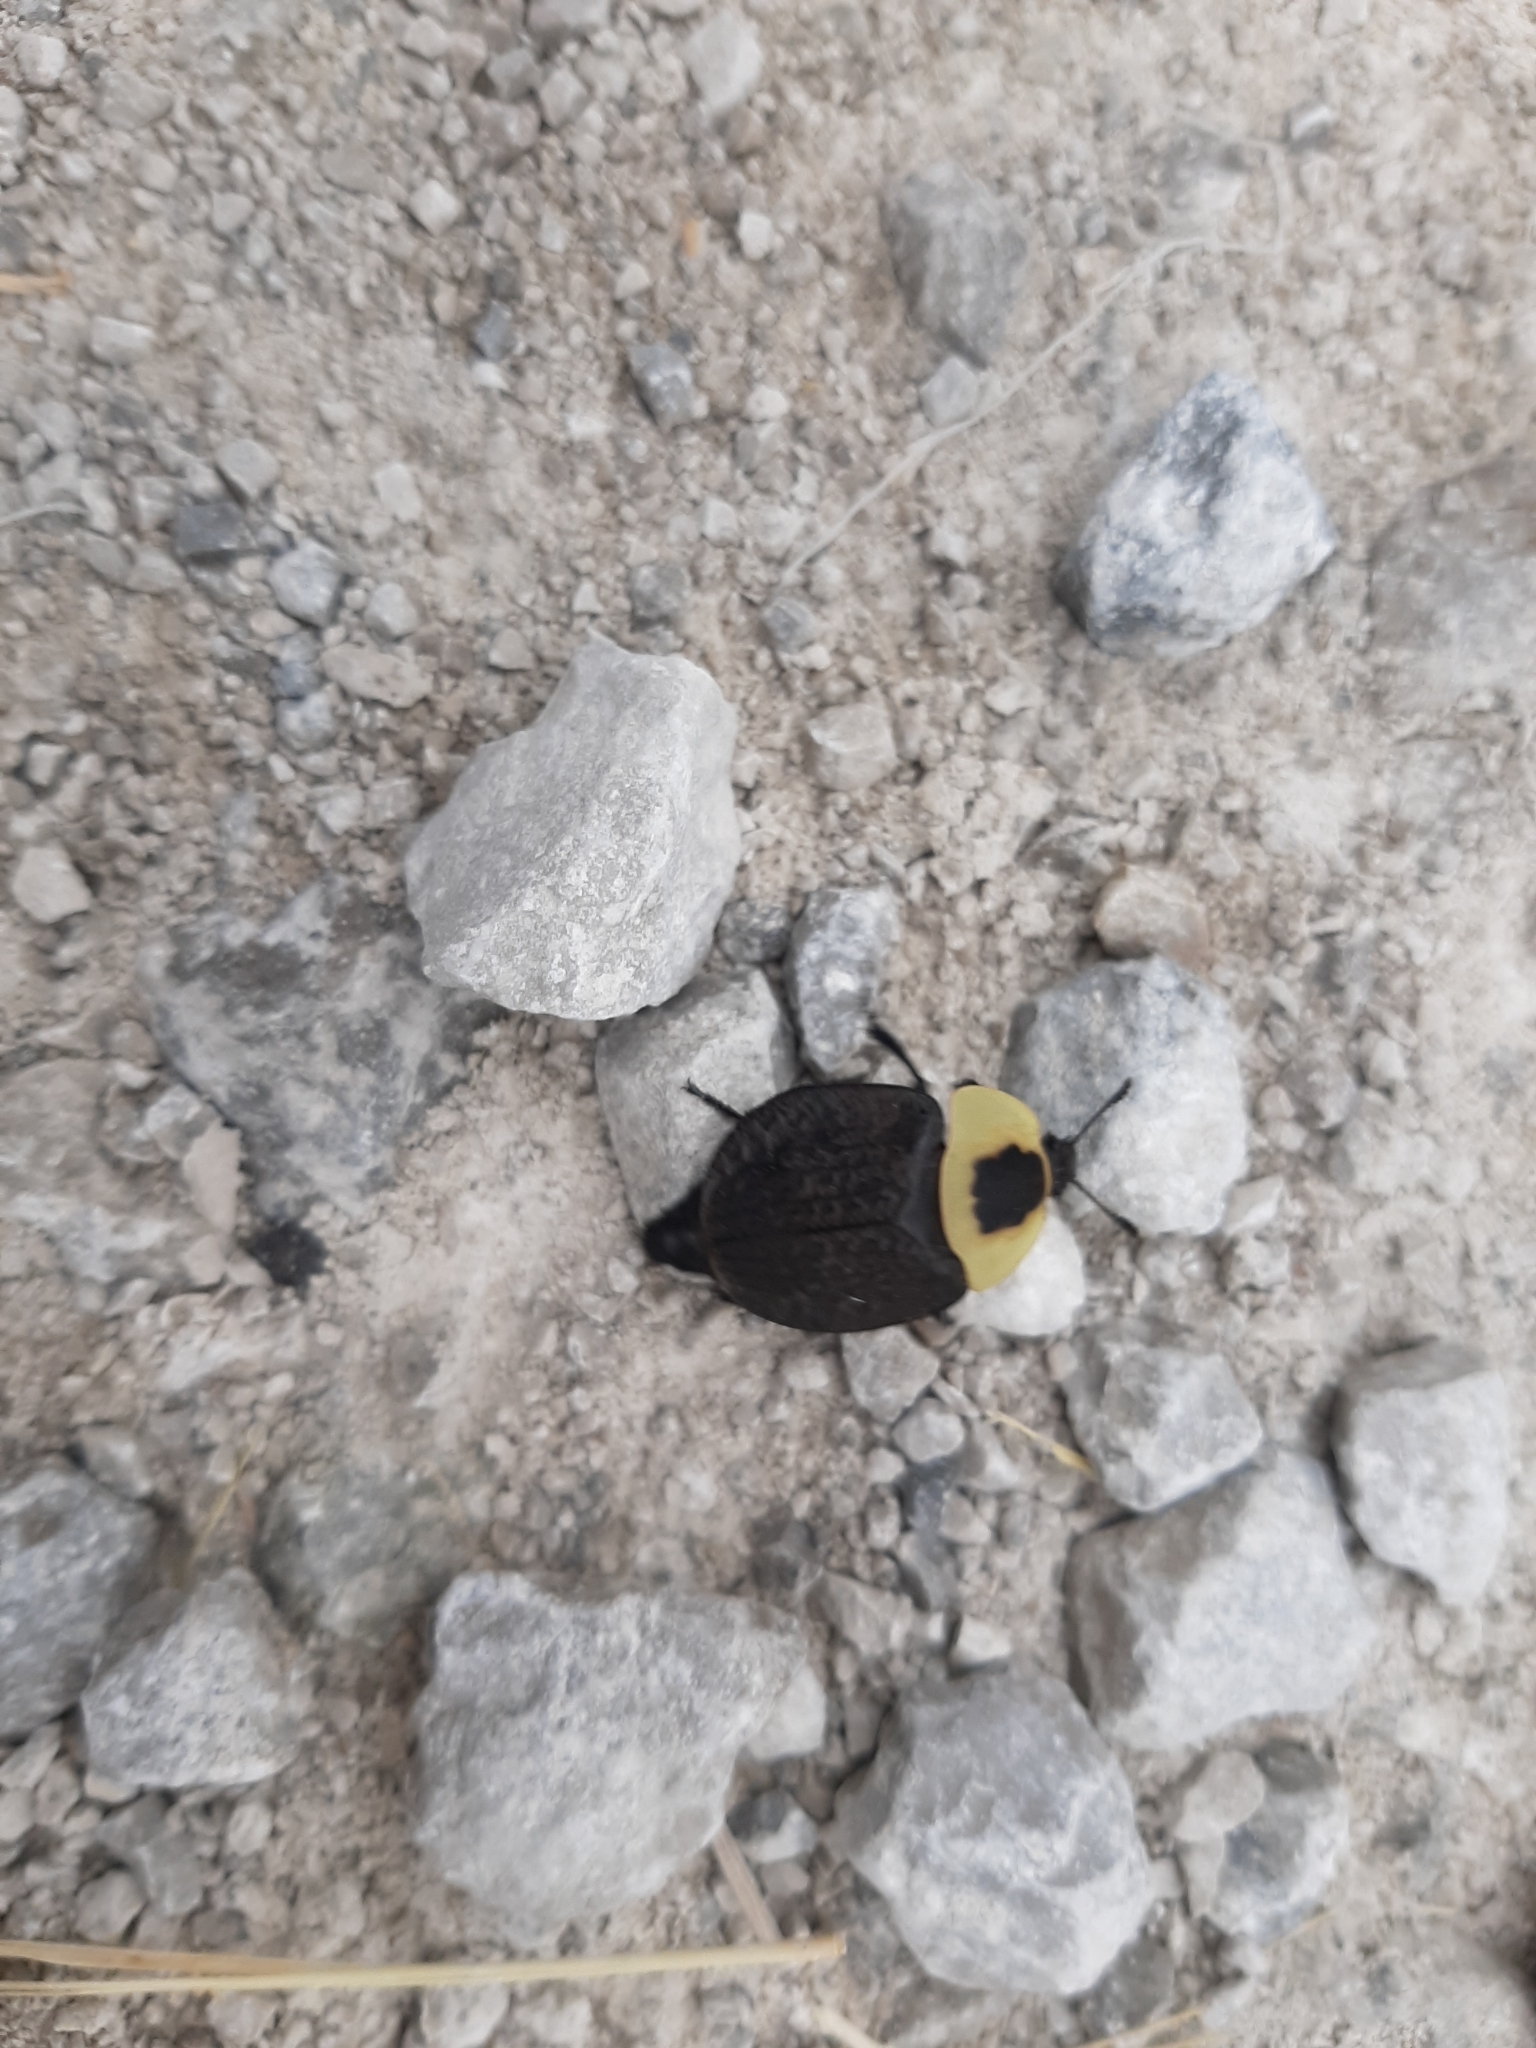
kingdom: Animalia
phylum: Arthropoda
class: Insecta
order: Coleoptera
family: Staphylinidae
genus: Necrophila
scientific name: Necrophila americana
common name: American carrion beetle
